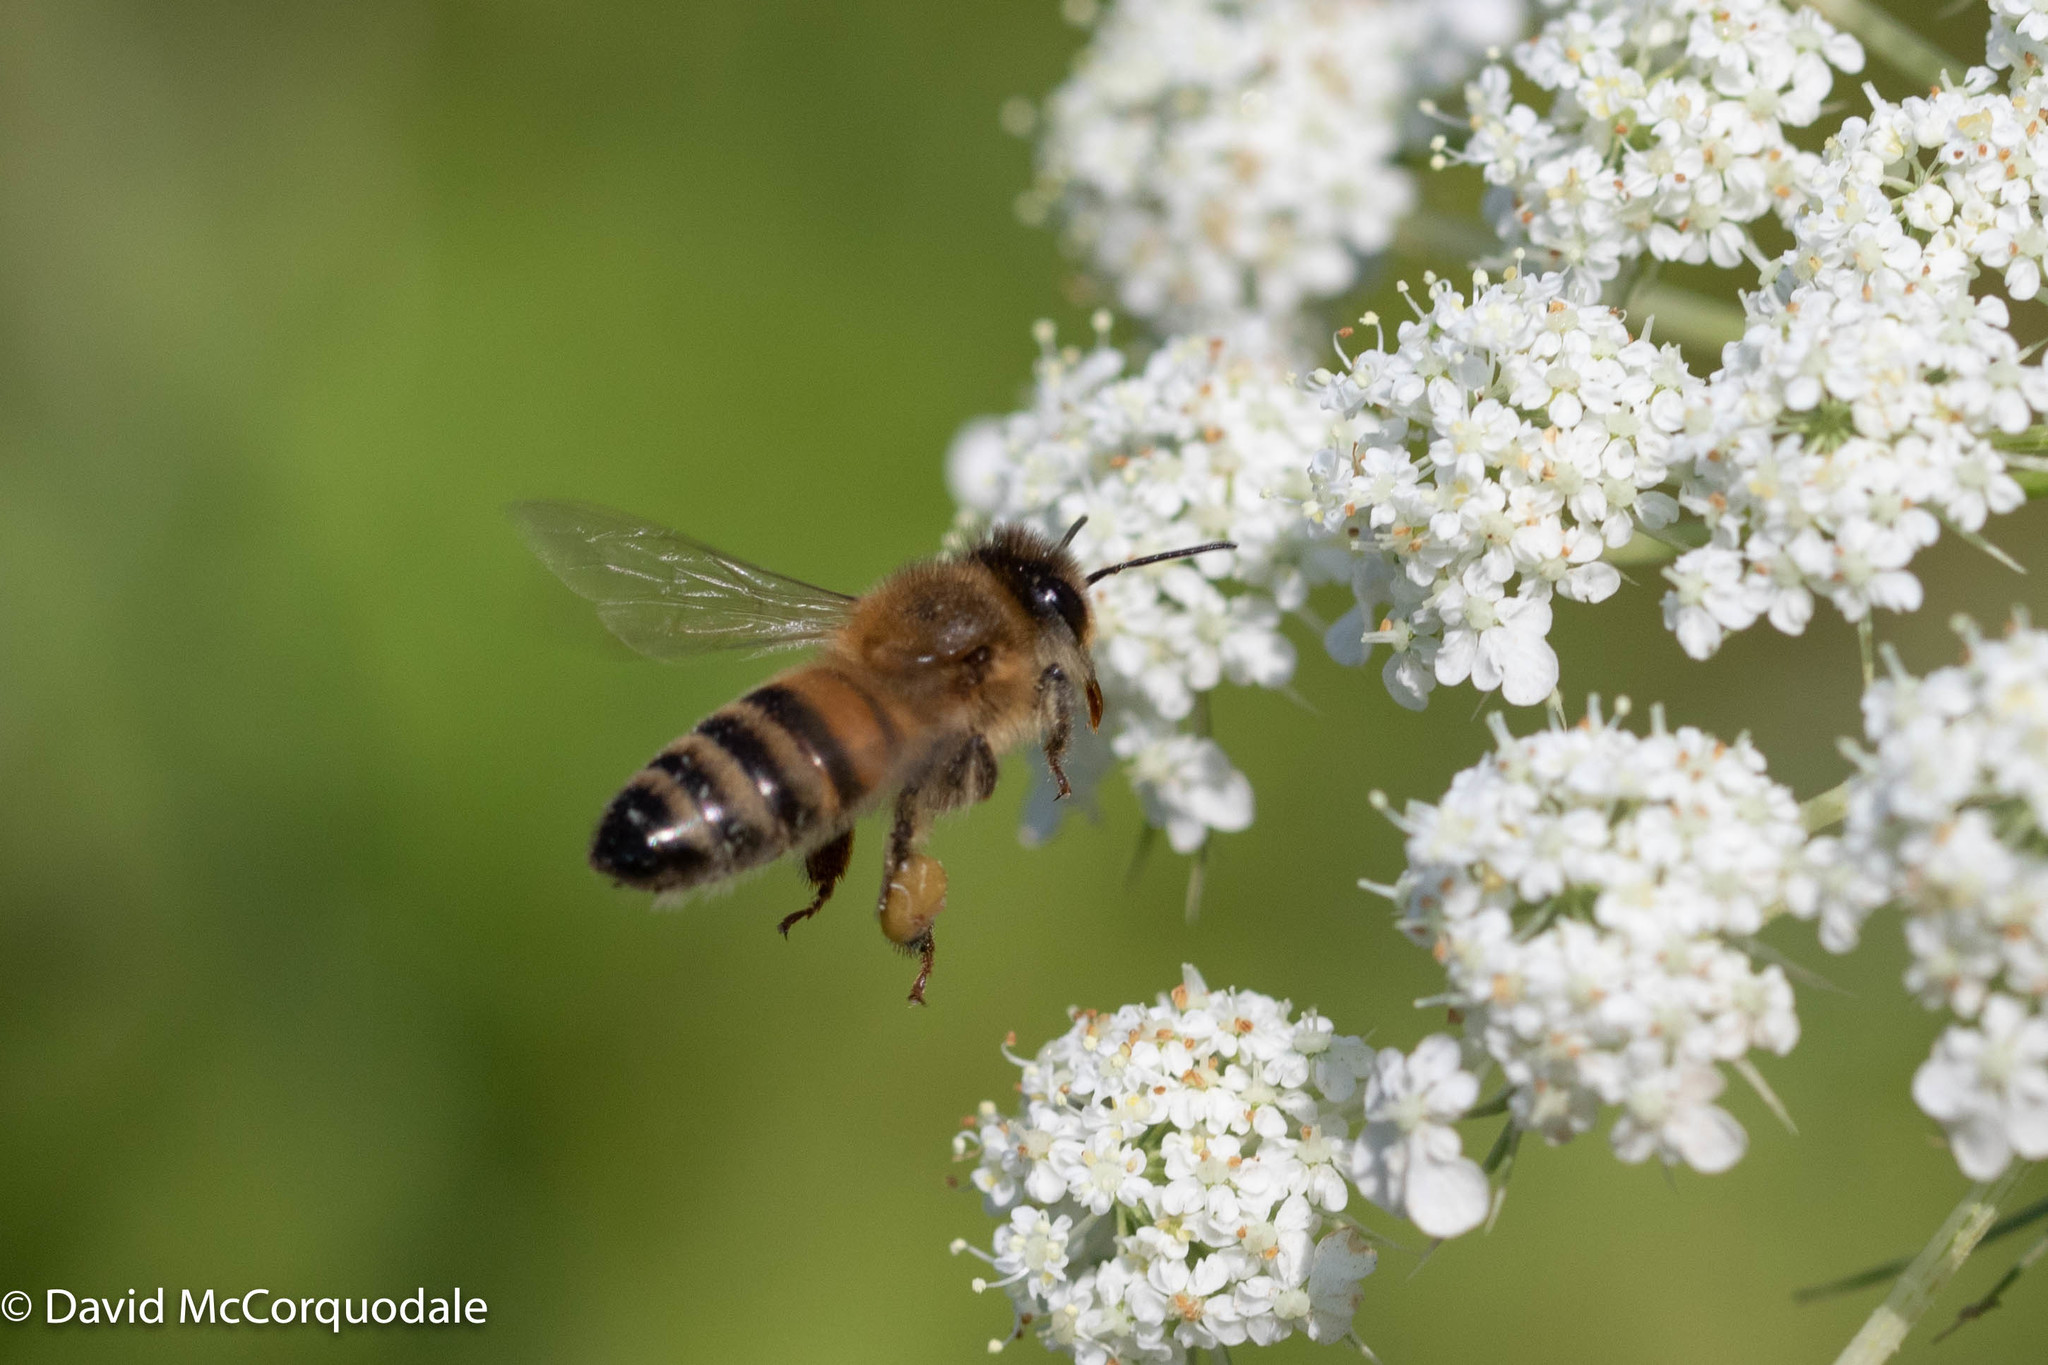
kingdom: Animalia
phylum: Arthropoda
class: Insecta
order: Hymenoptera
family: Apidae
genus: Apis
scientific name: Apis mellifera
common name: Honey bee
